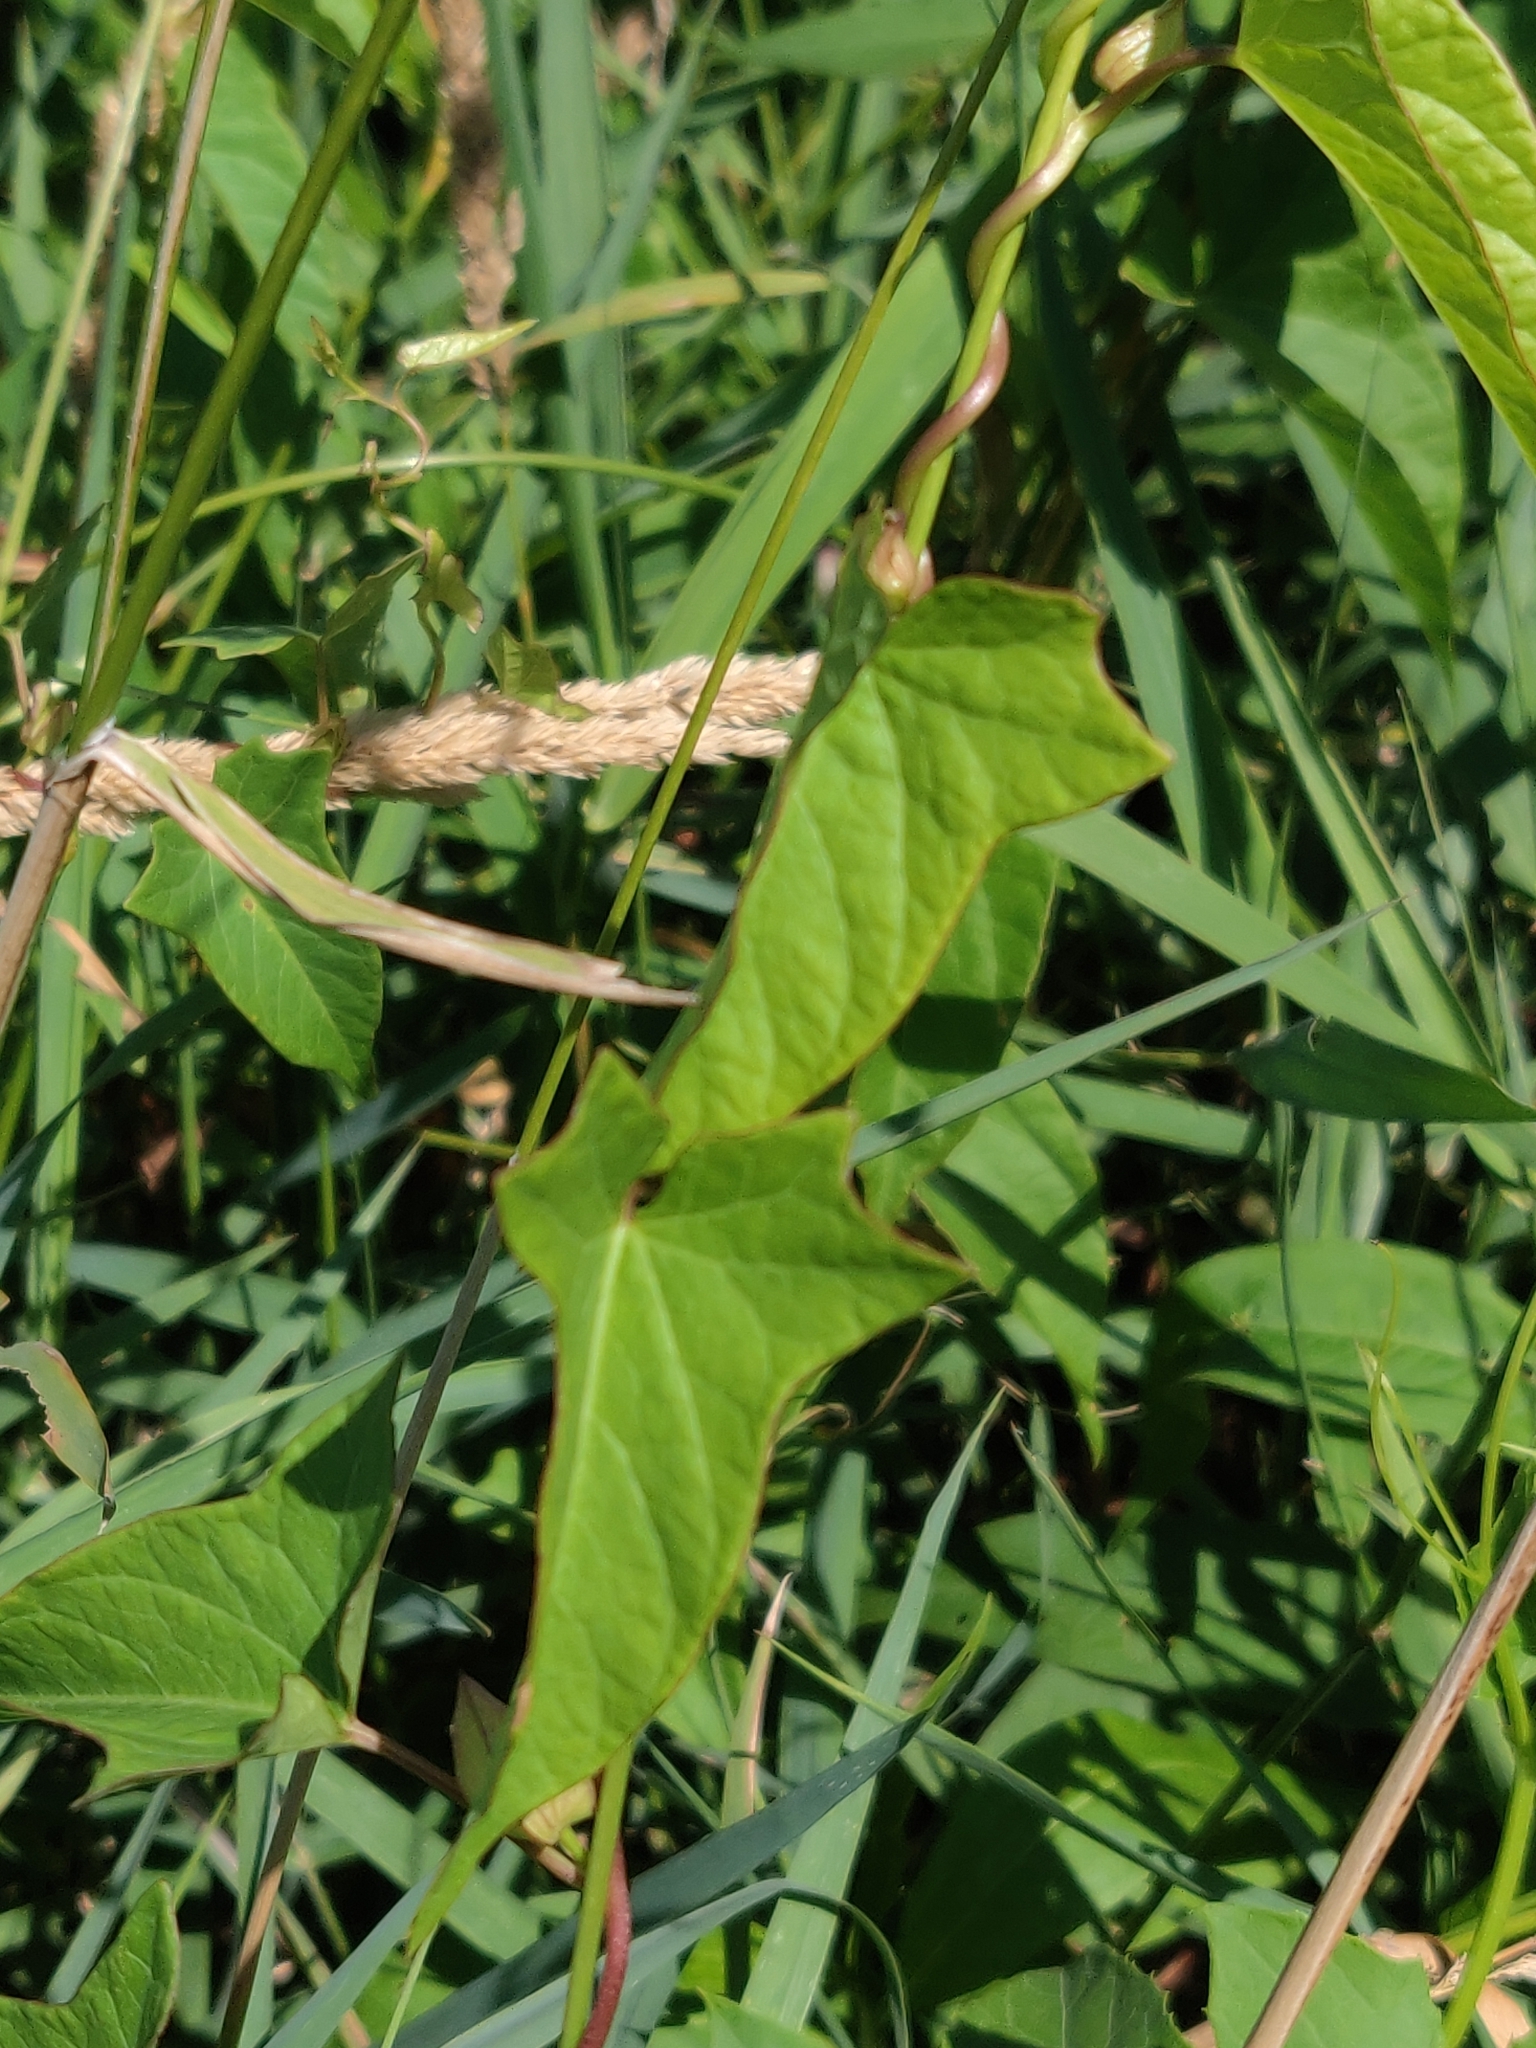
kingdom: Plantae
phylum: Tracheophyta
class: Magnoliopsida
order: Solanales
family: Convolvulaceae
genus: Calystegia
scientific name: Calystegia sepium
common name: Hedge bindweed
